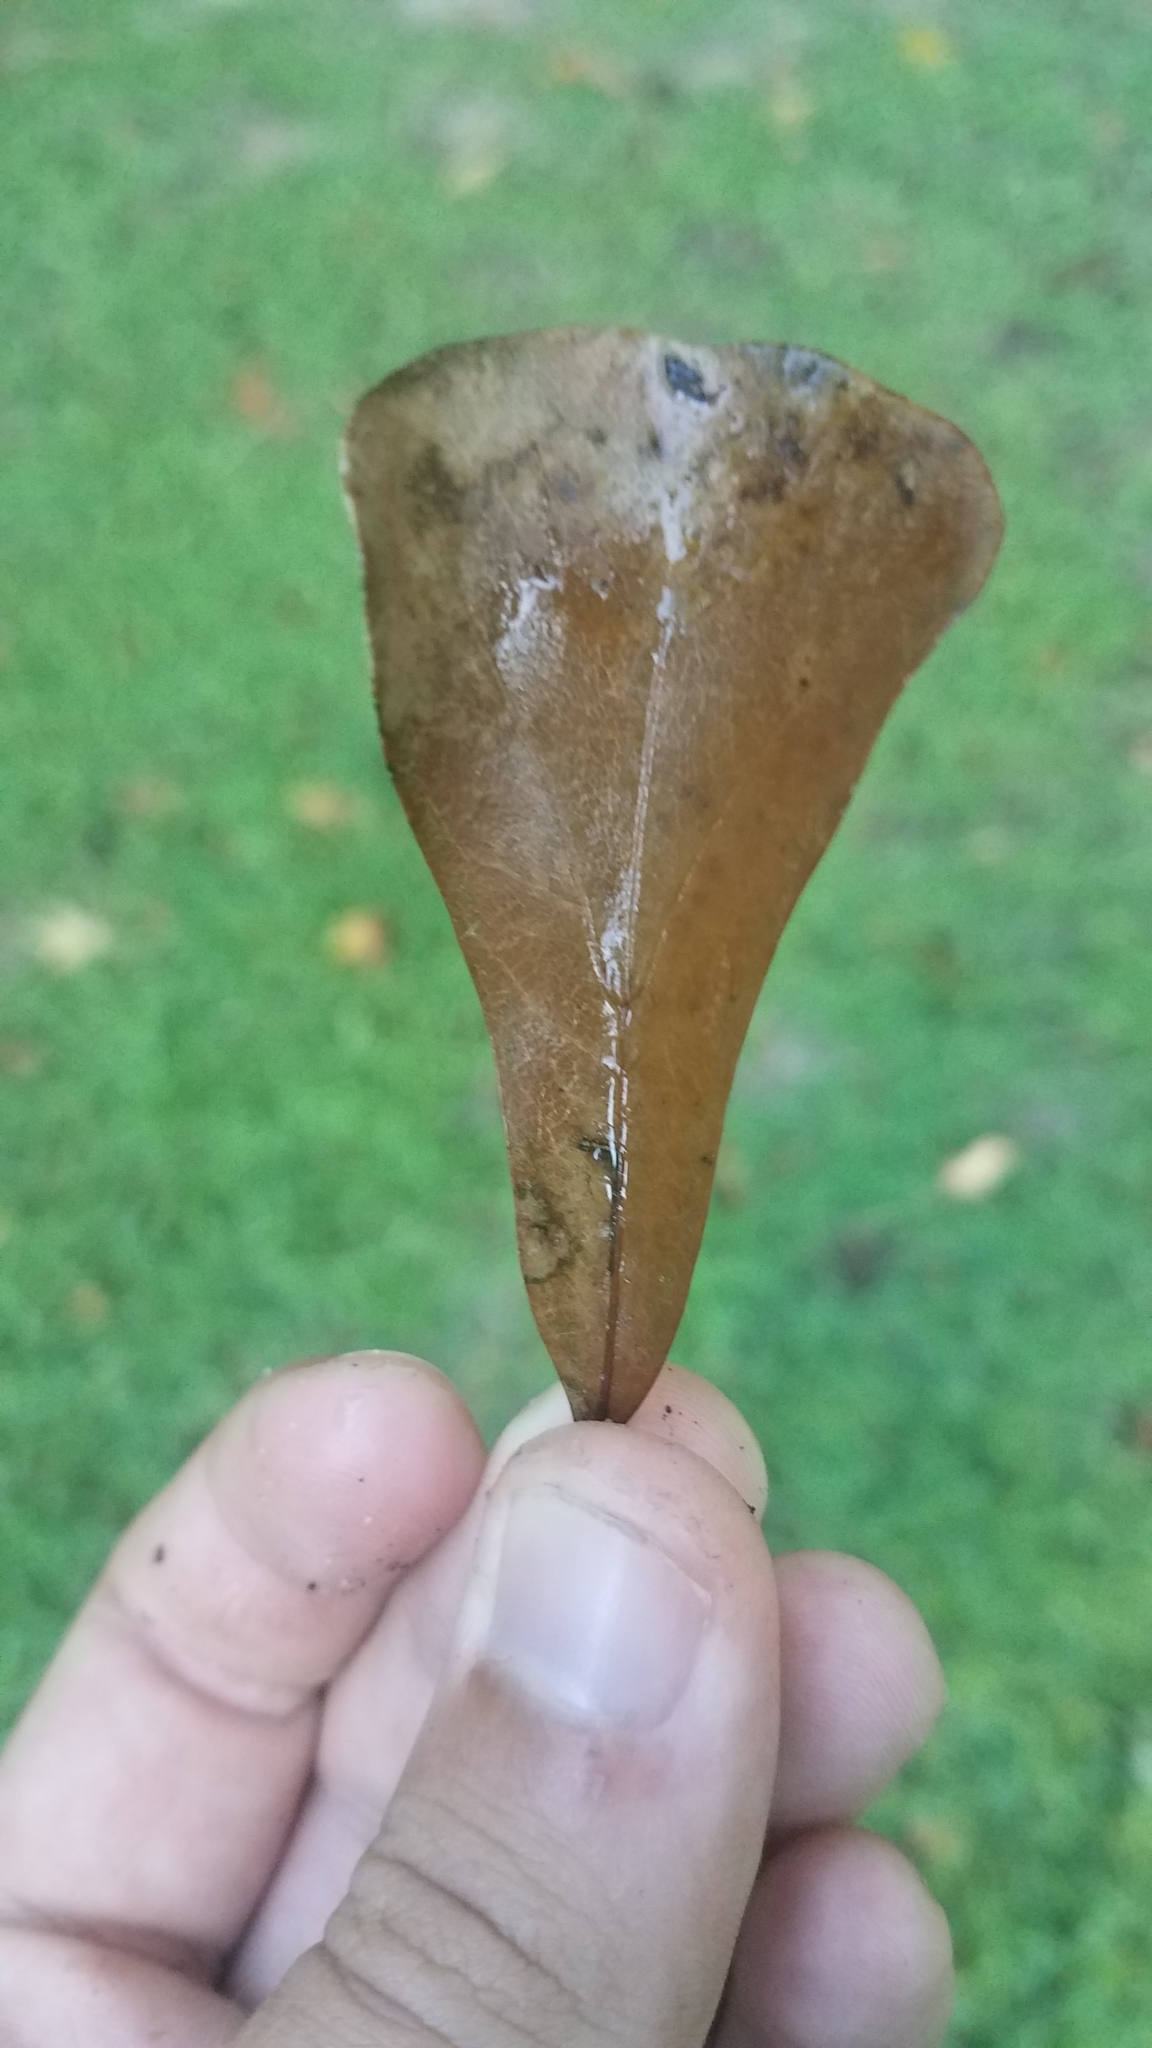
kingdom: Plantae
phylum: Tracheophyta
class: Magnoliopsida
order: Fagales
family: Fagaceae
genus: Quercus
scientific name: Quercus nigra
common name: Water oak
